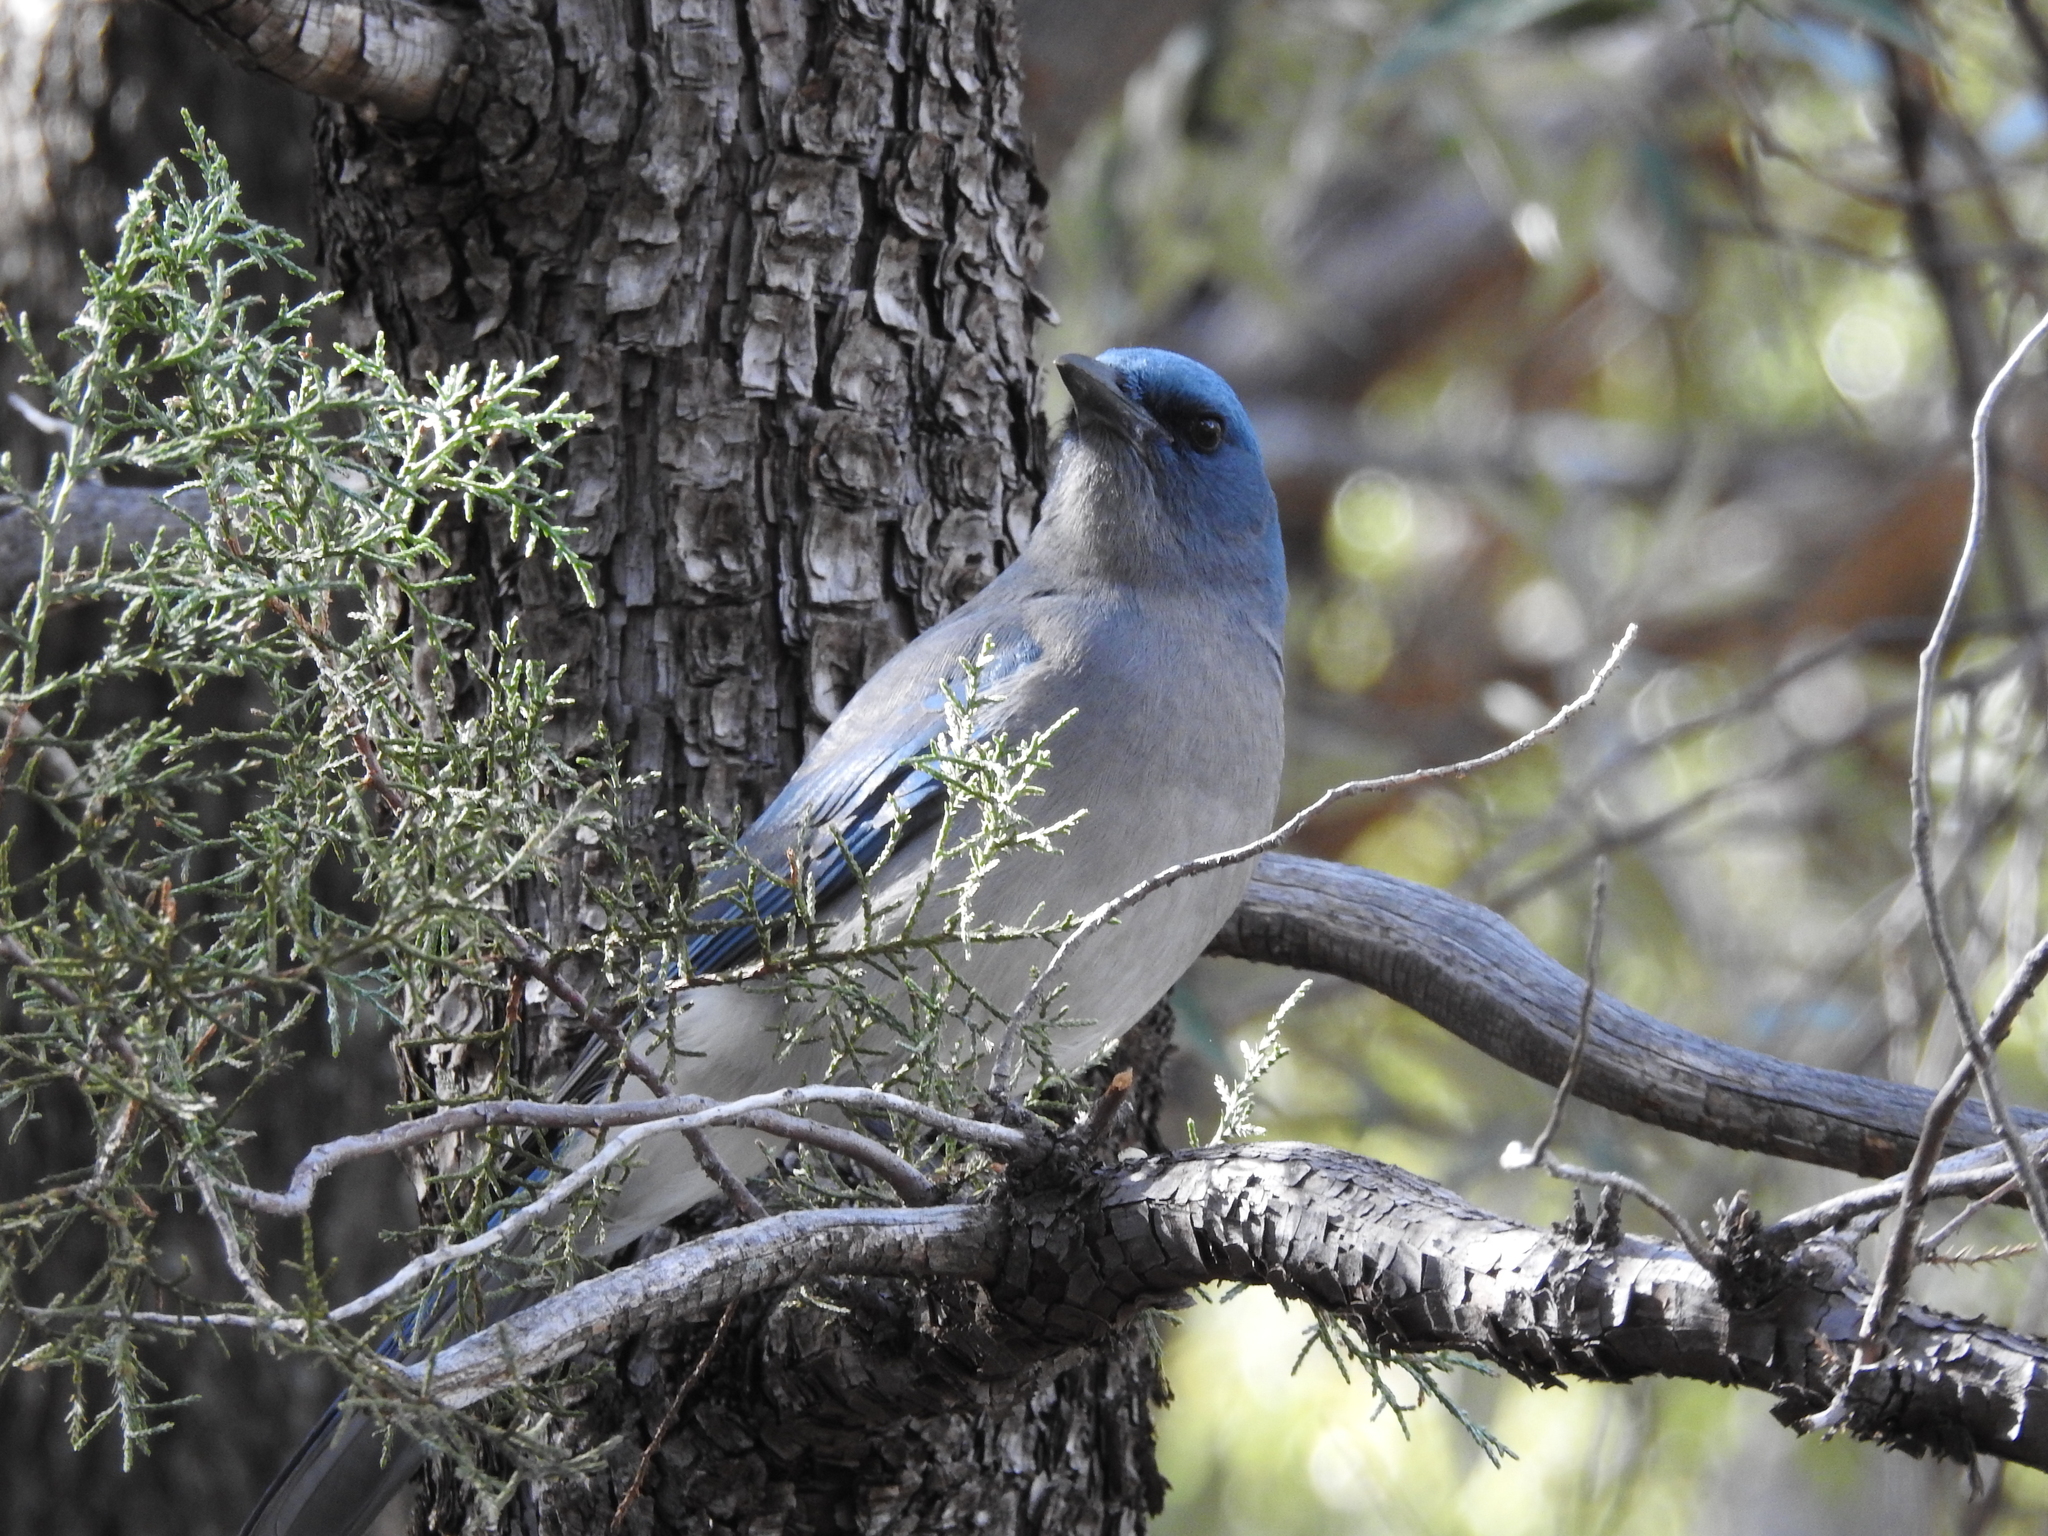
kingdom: Animalia
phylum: Chordata
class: Aves
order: Passeriformes
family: Corvidae
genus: Aphelocoma
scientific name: Aphelocoma wollweberi
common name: Mexican jay
